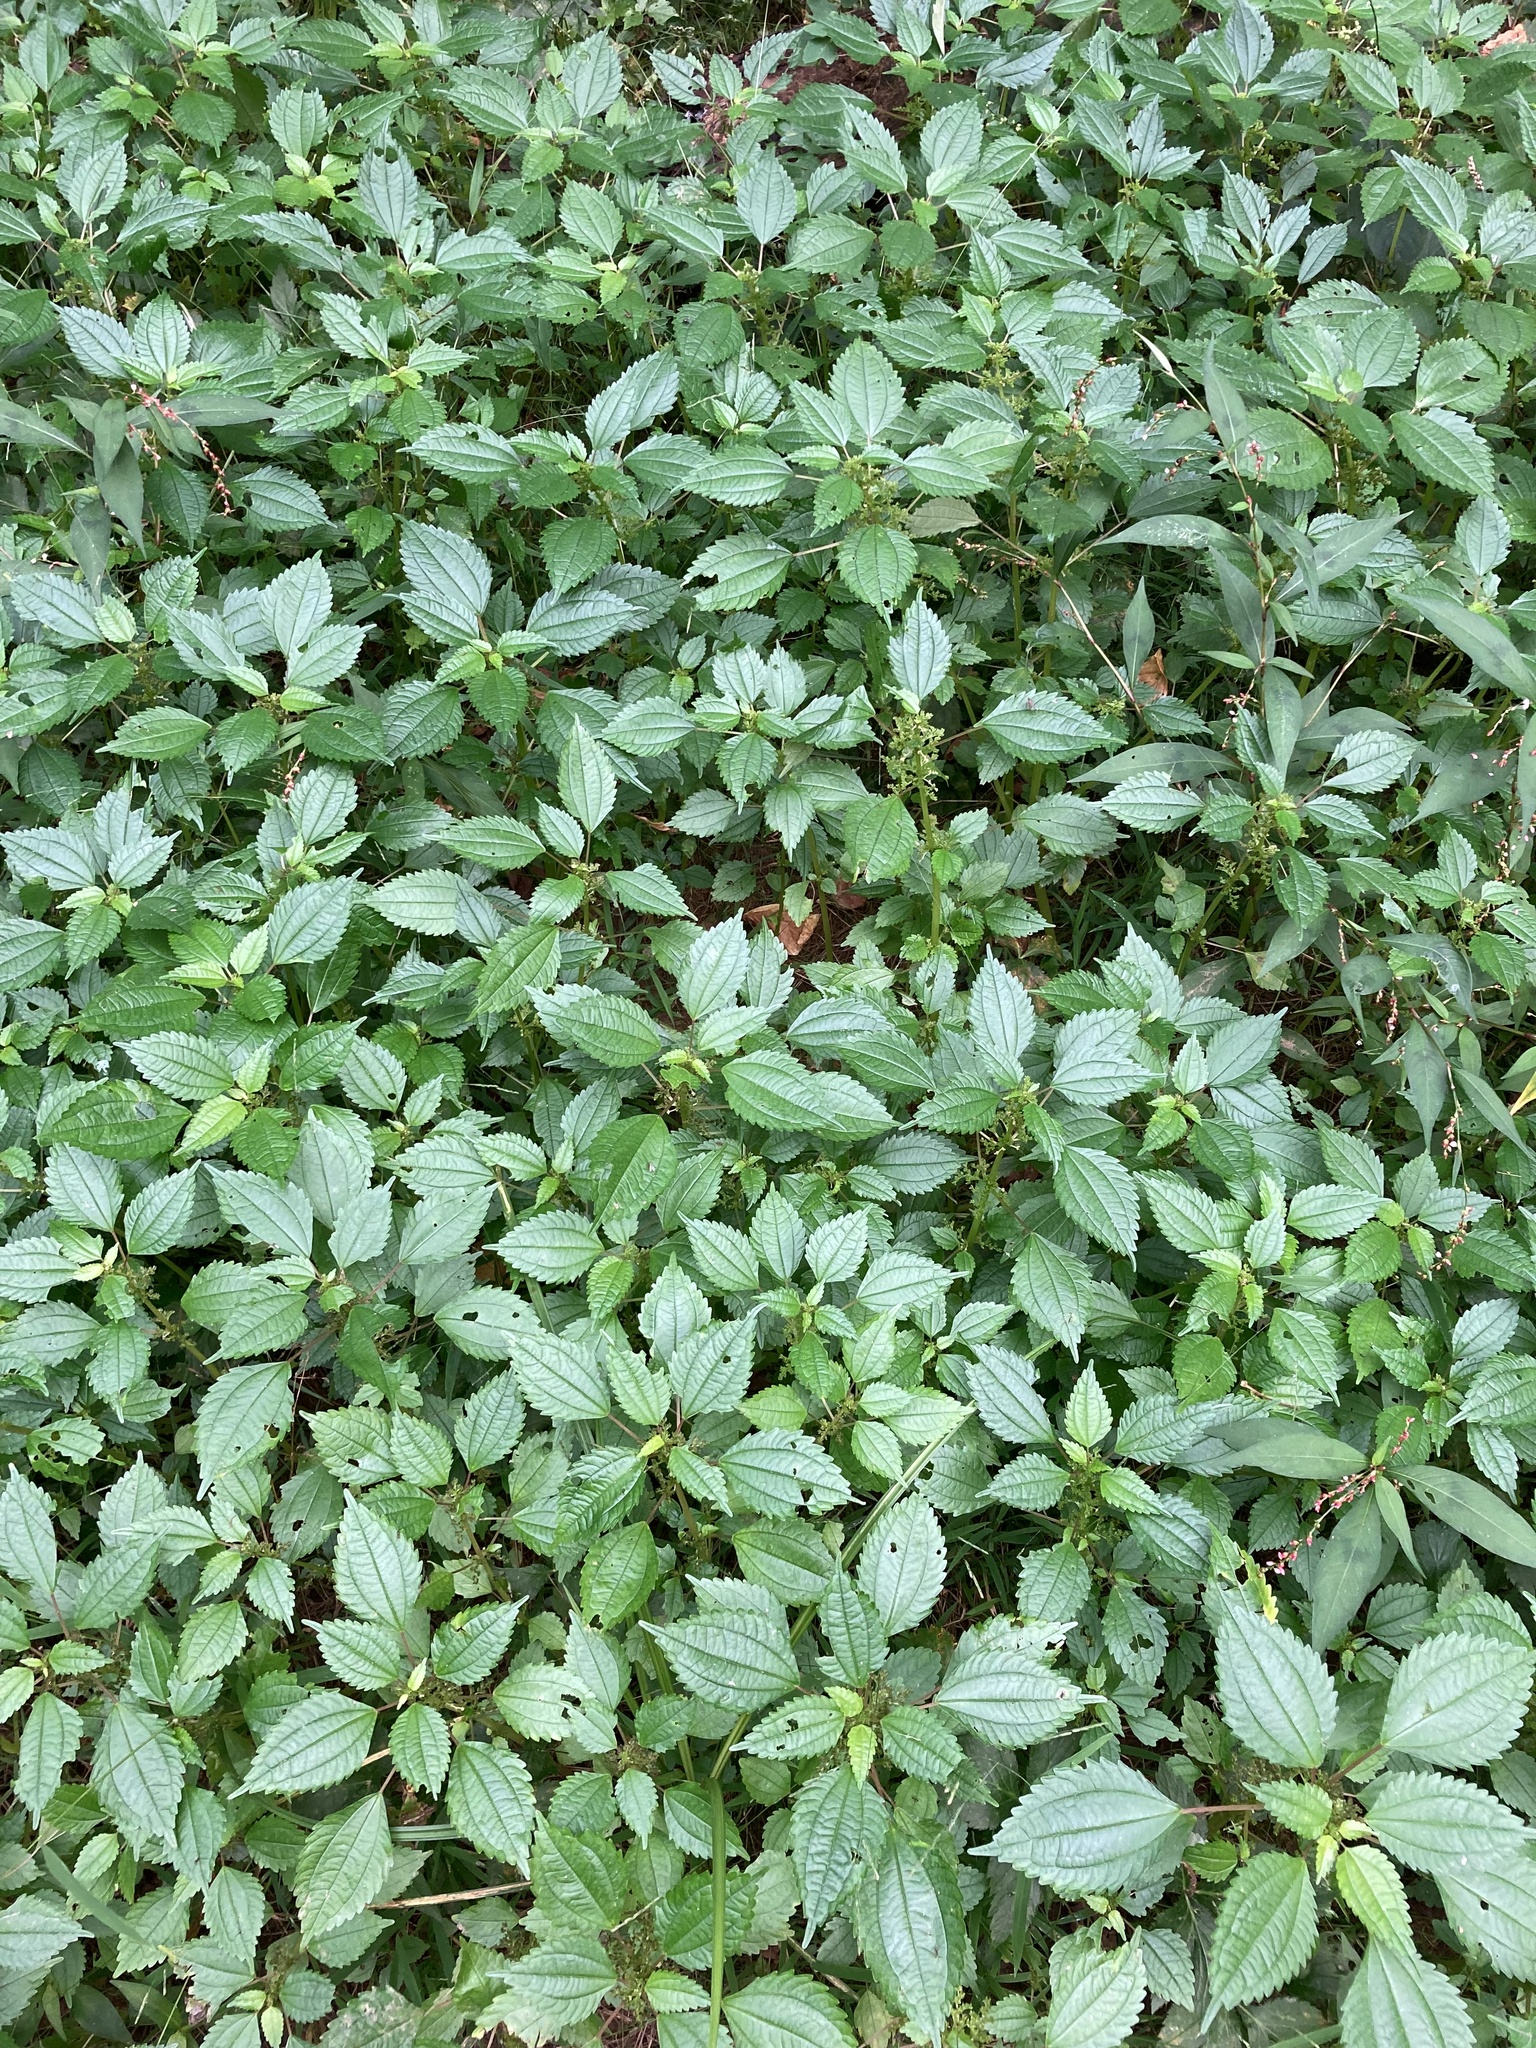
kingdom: Plantae
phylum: Tracheophyta
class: Magnoliopsida
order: Rosales
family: Urticaceae
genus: Pilea
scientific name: Pilea pumila
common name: Clearweed
